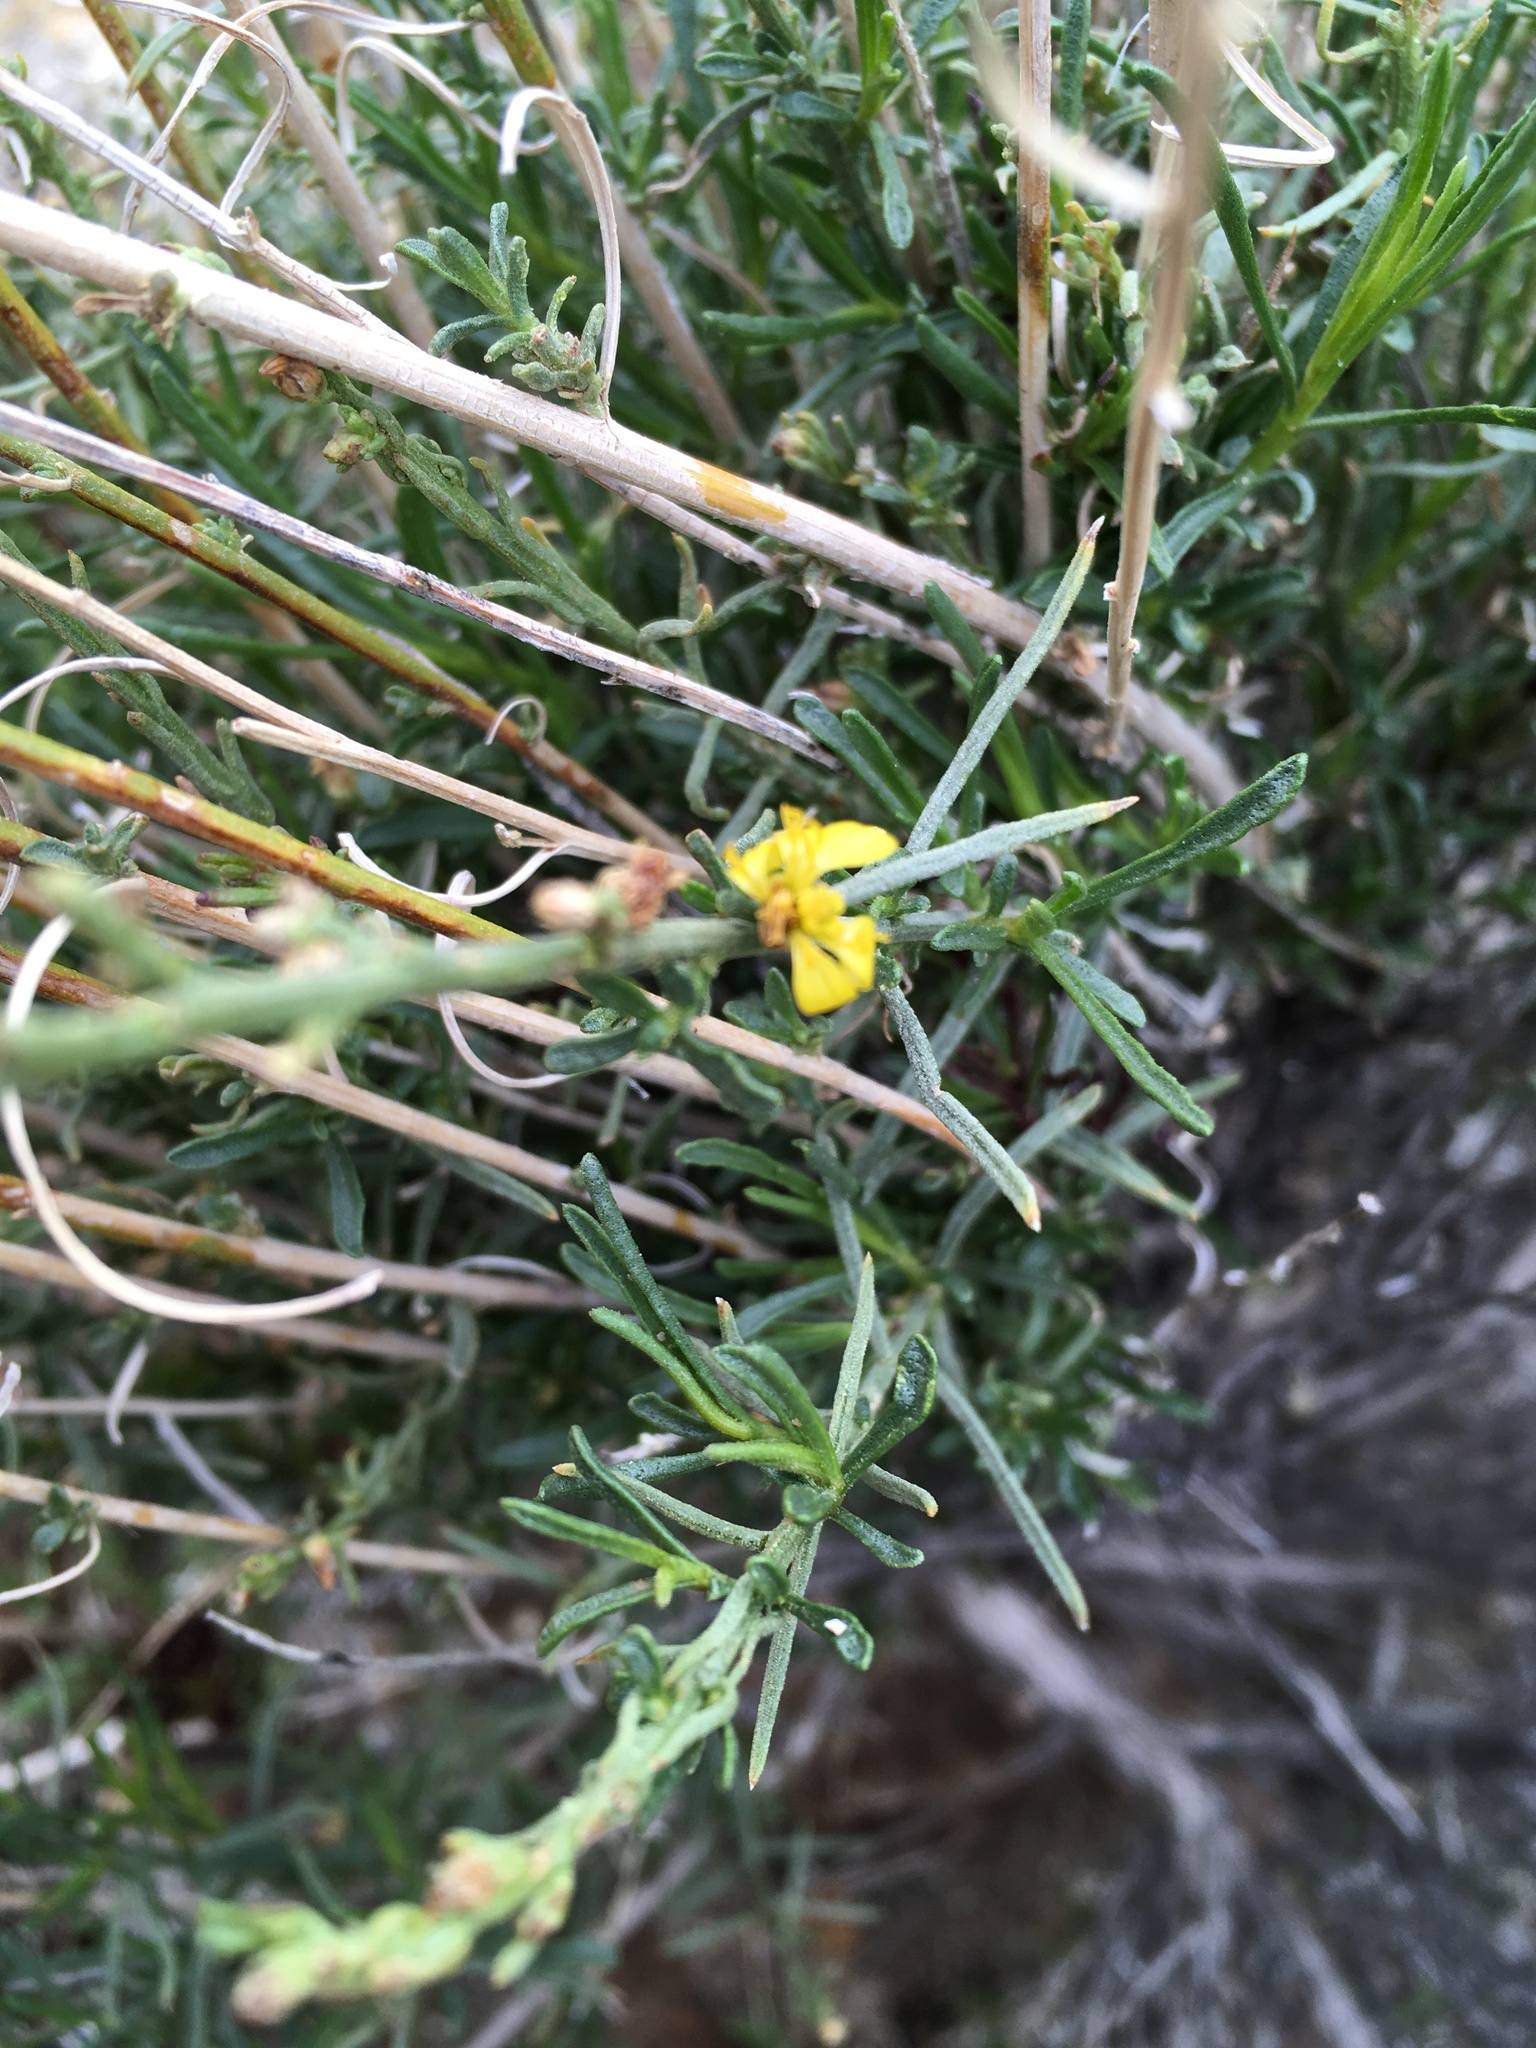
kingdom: Plantae
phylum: Tracheophyta
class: Magnoliopsida
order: Fabales
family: Fabaceae
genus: Acmispon
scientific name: Acmispon glaber
